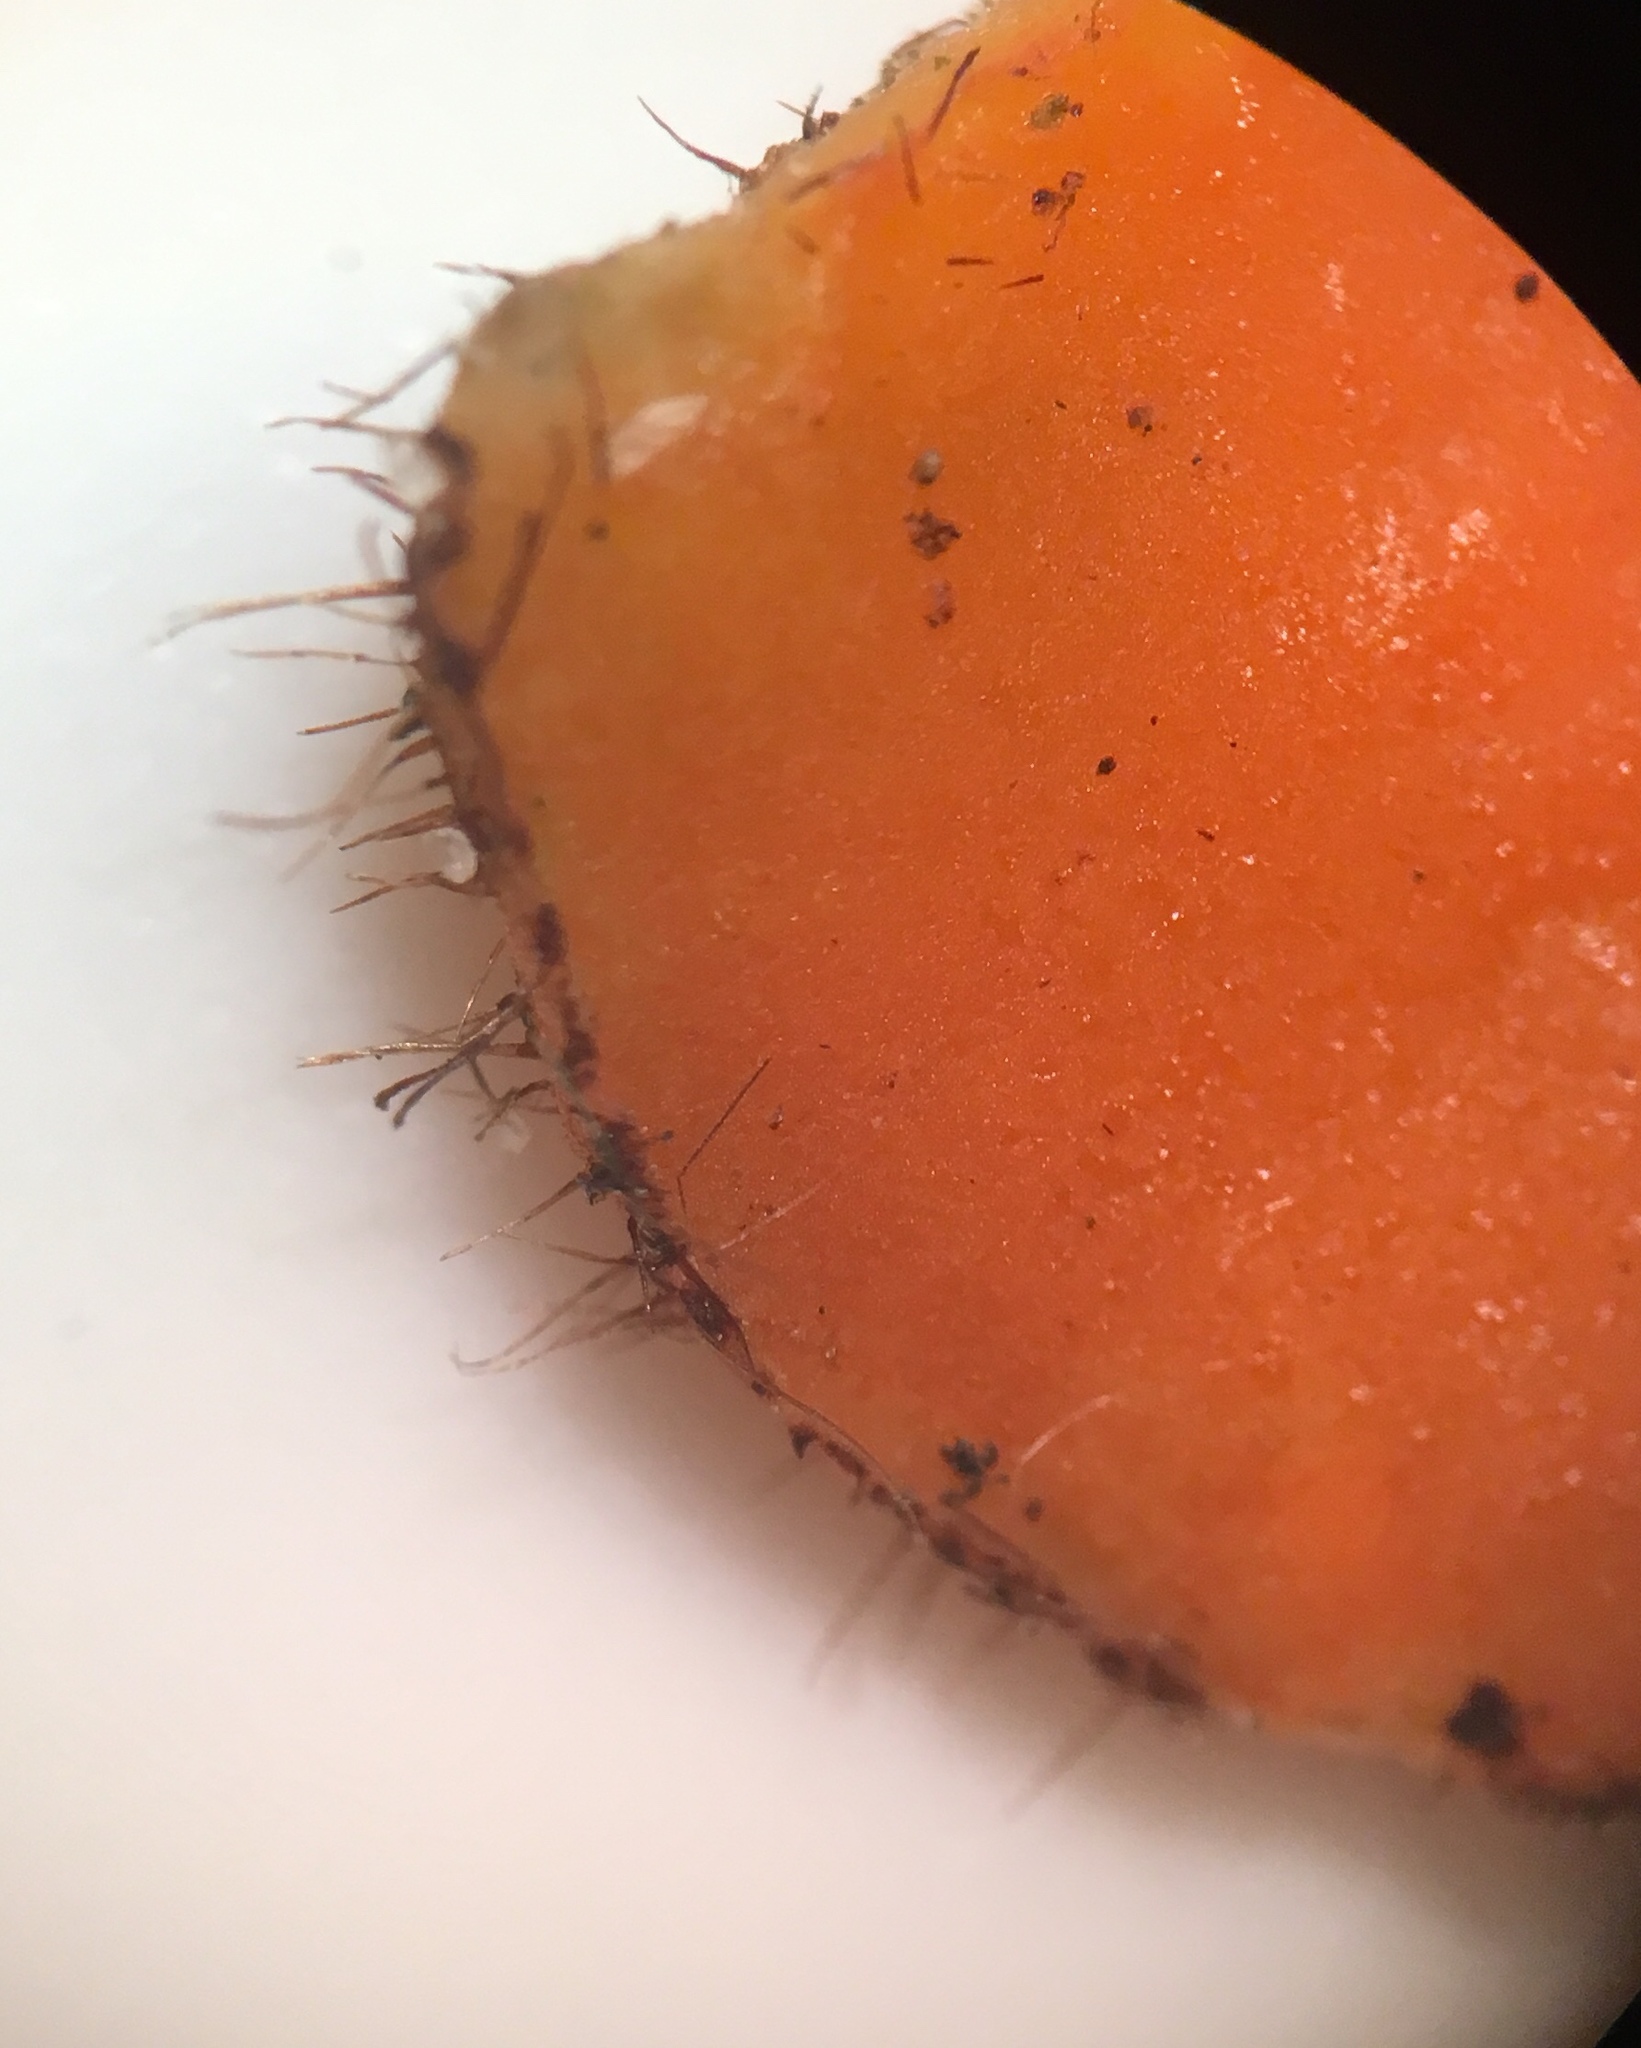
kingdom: Fungi
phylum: Ascomycota
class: Pezizomycetes
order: Pezizales
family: Pyronemataceae
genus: Scutellinia
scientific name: Scutellinia olivascens
